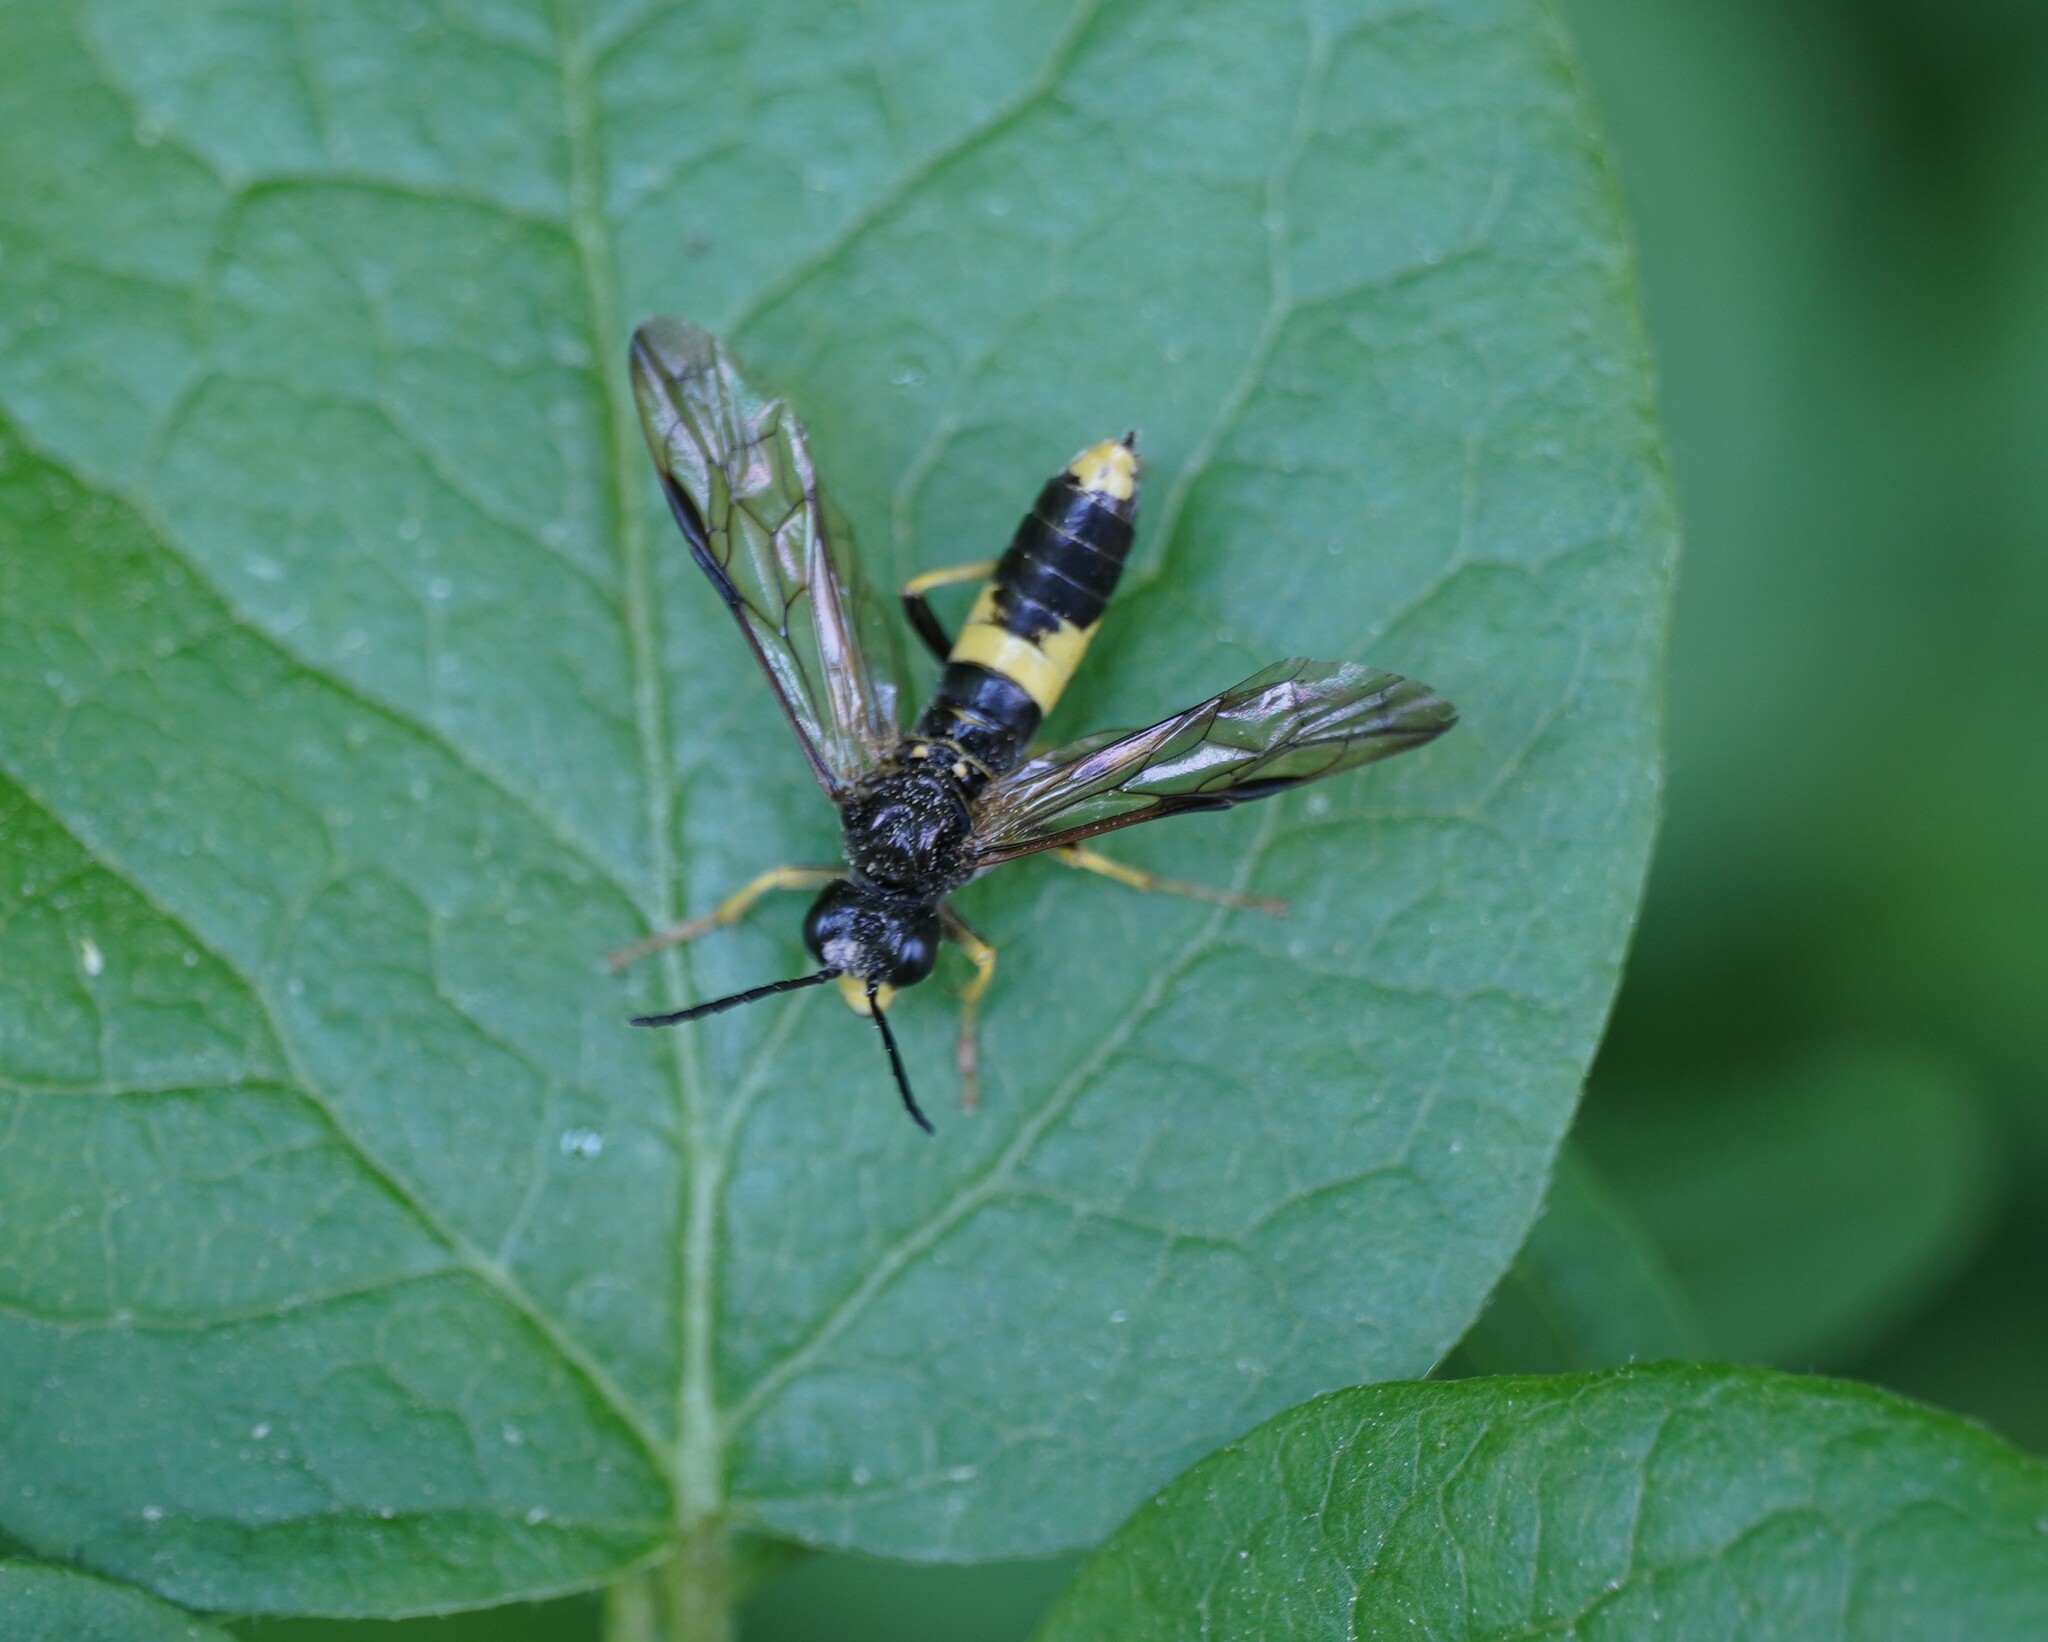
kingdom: Animalia
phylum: Arthropoda
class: Insecta
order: Hymenoptera
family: Tenthredinidae
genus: Tenthredo
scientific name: Tenthredo temula
